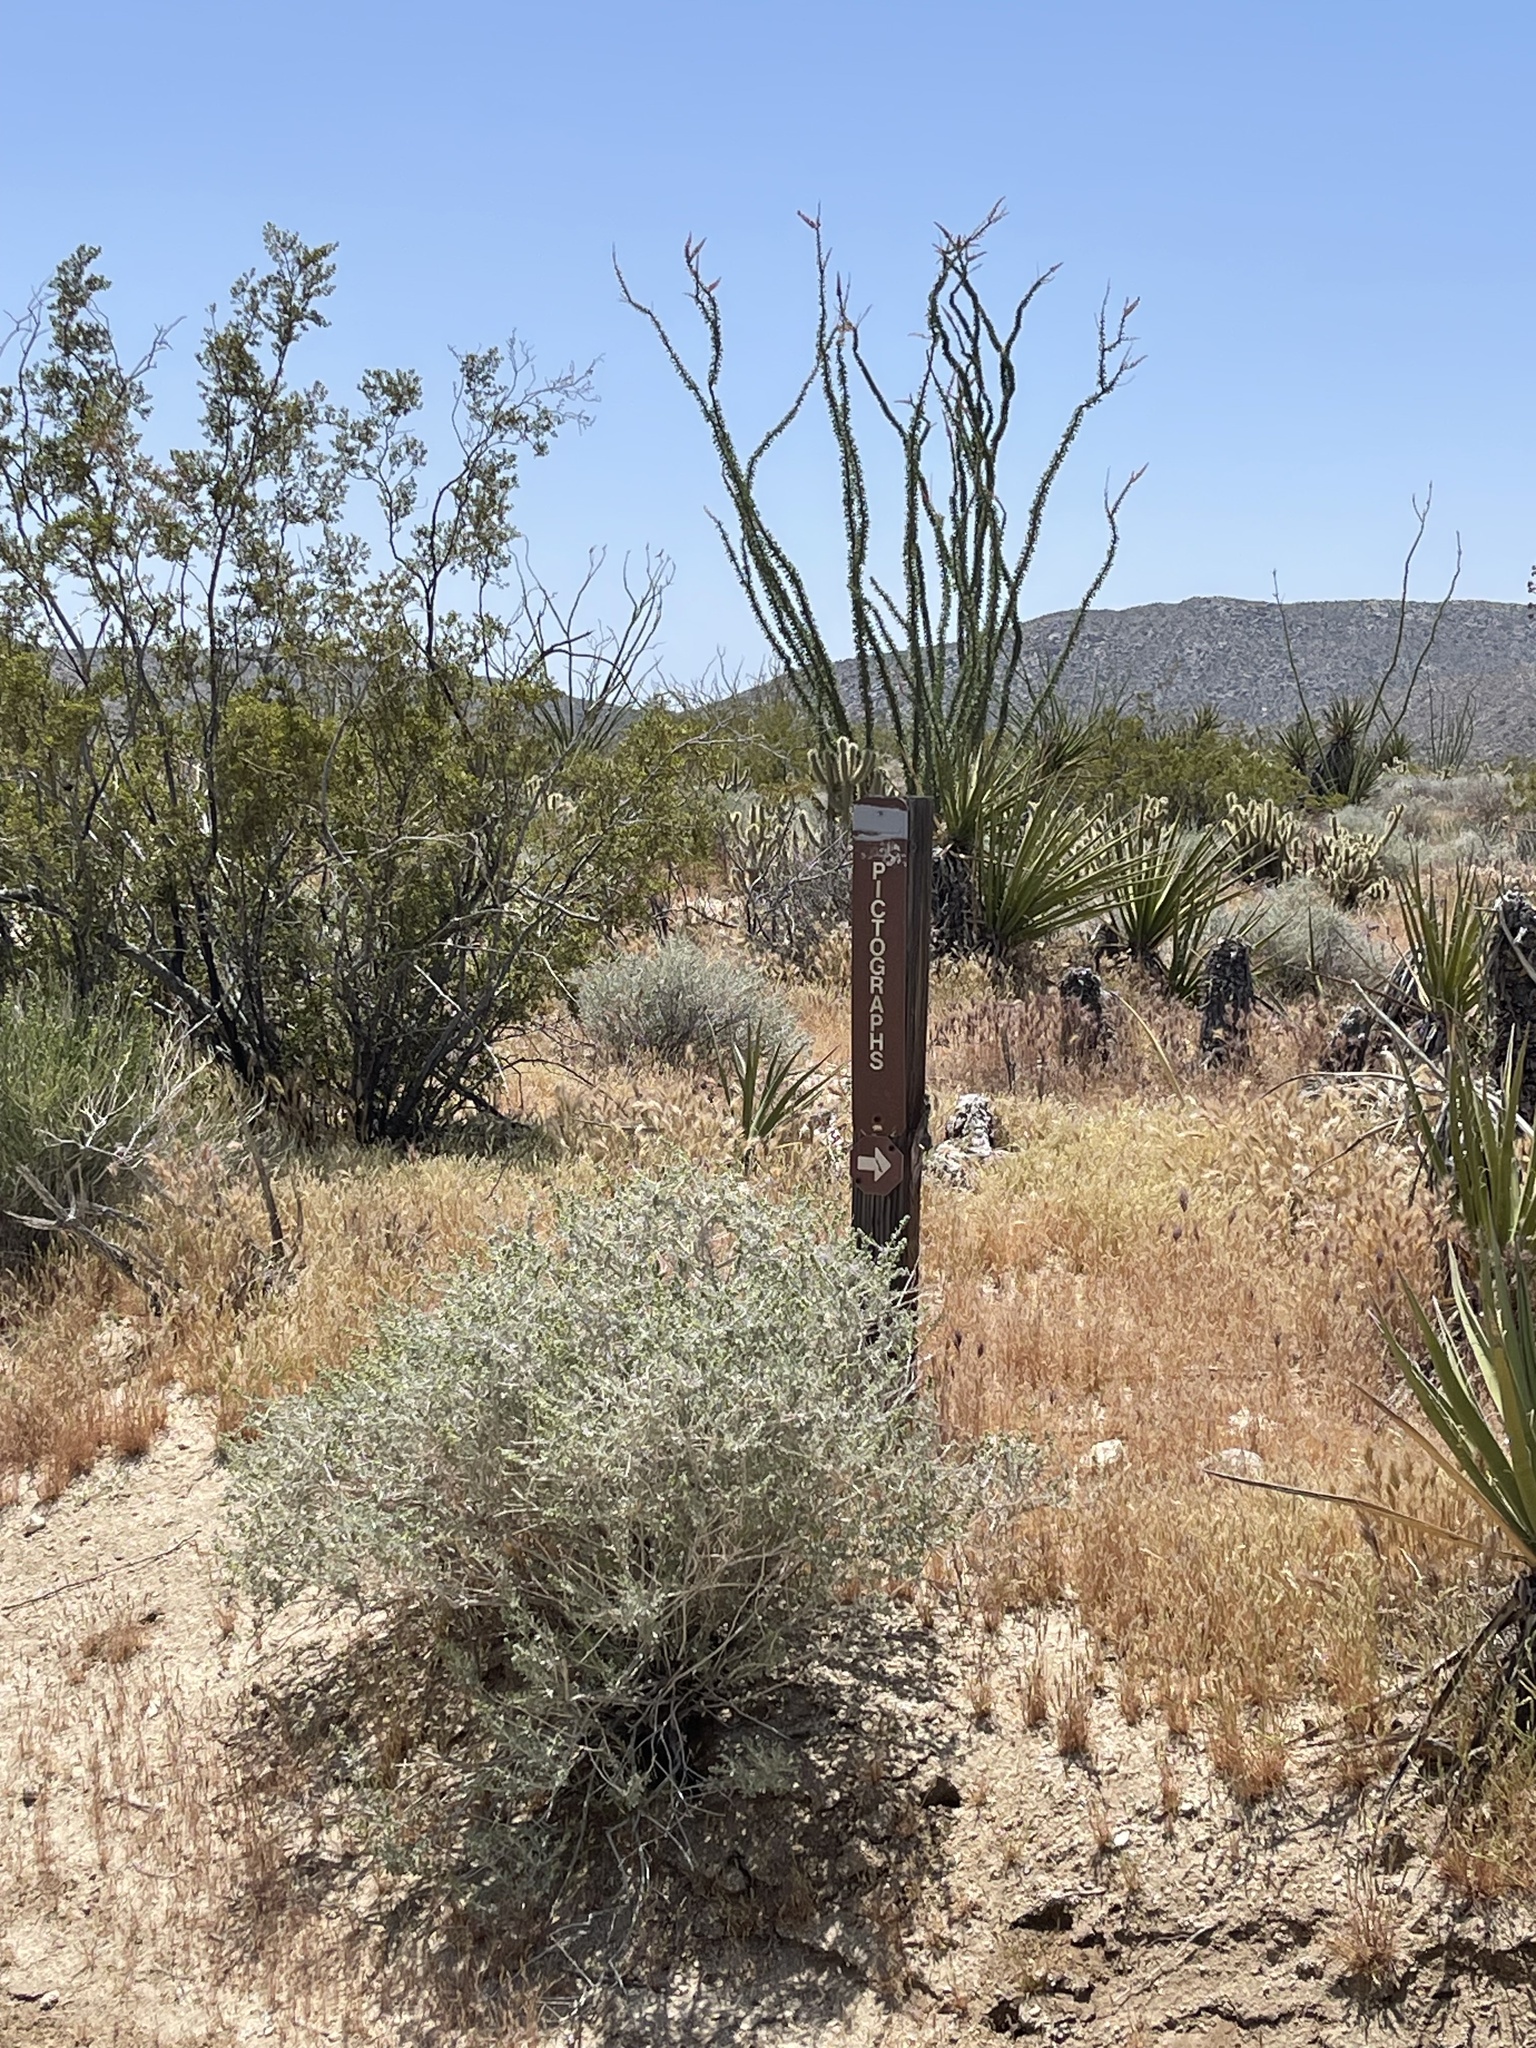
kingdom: Plantae
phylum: Tracheophyta
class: Magnoliopsida
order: Ericales
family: Fouquieriaceae
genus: Fouquieria
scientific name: Fouquieria splendens
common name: Vine-cactus
